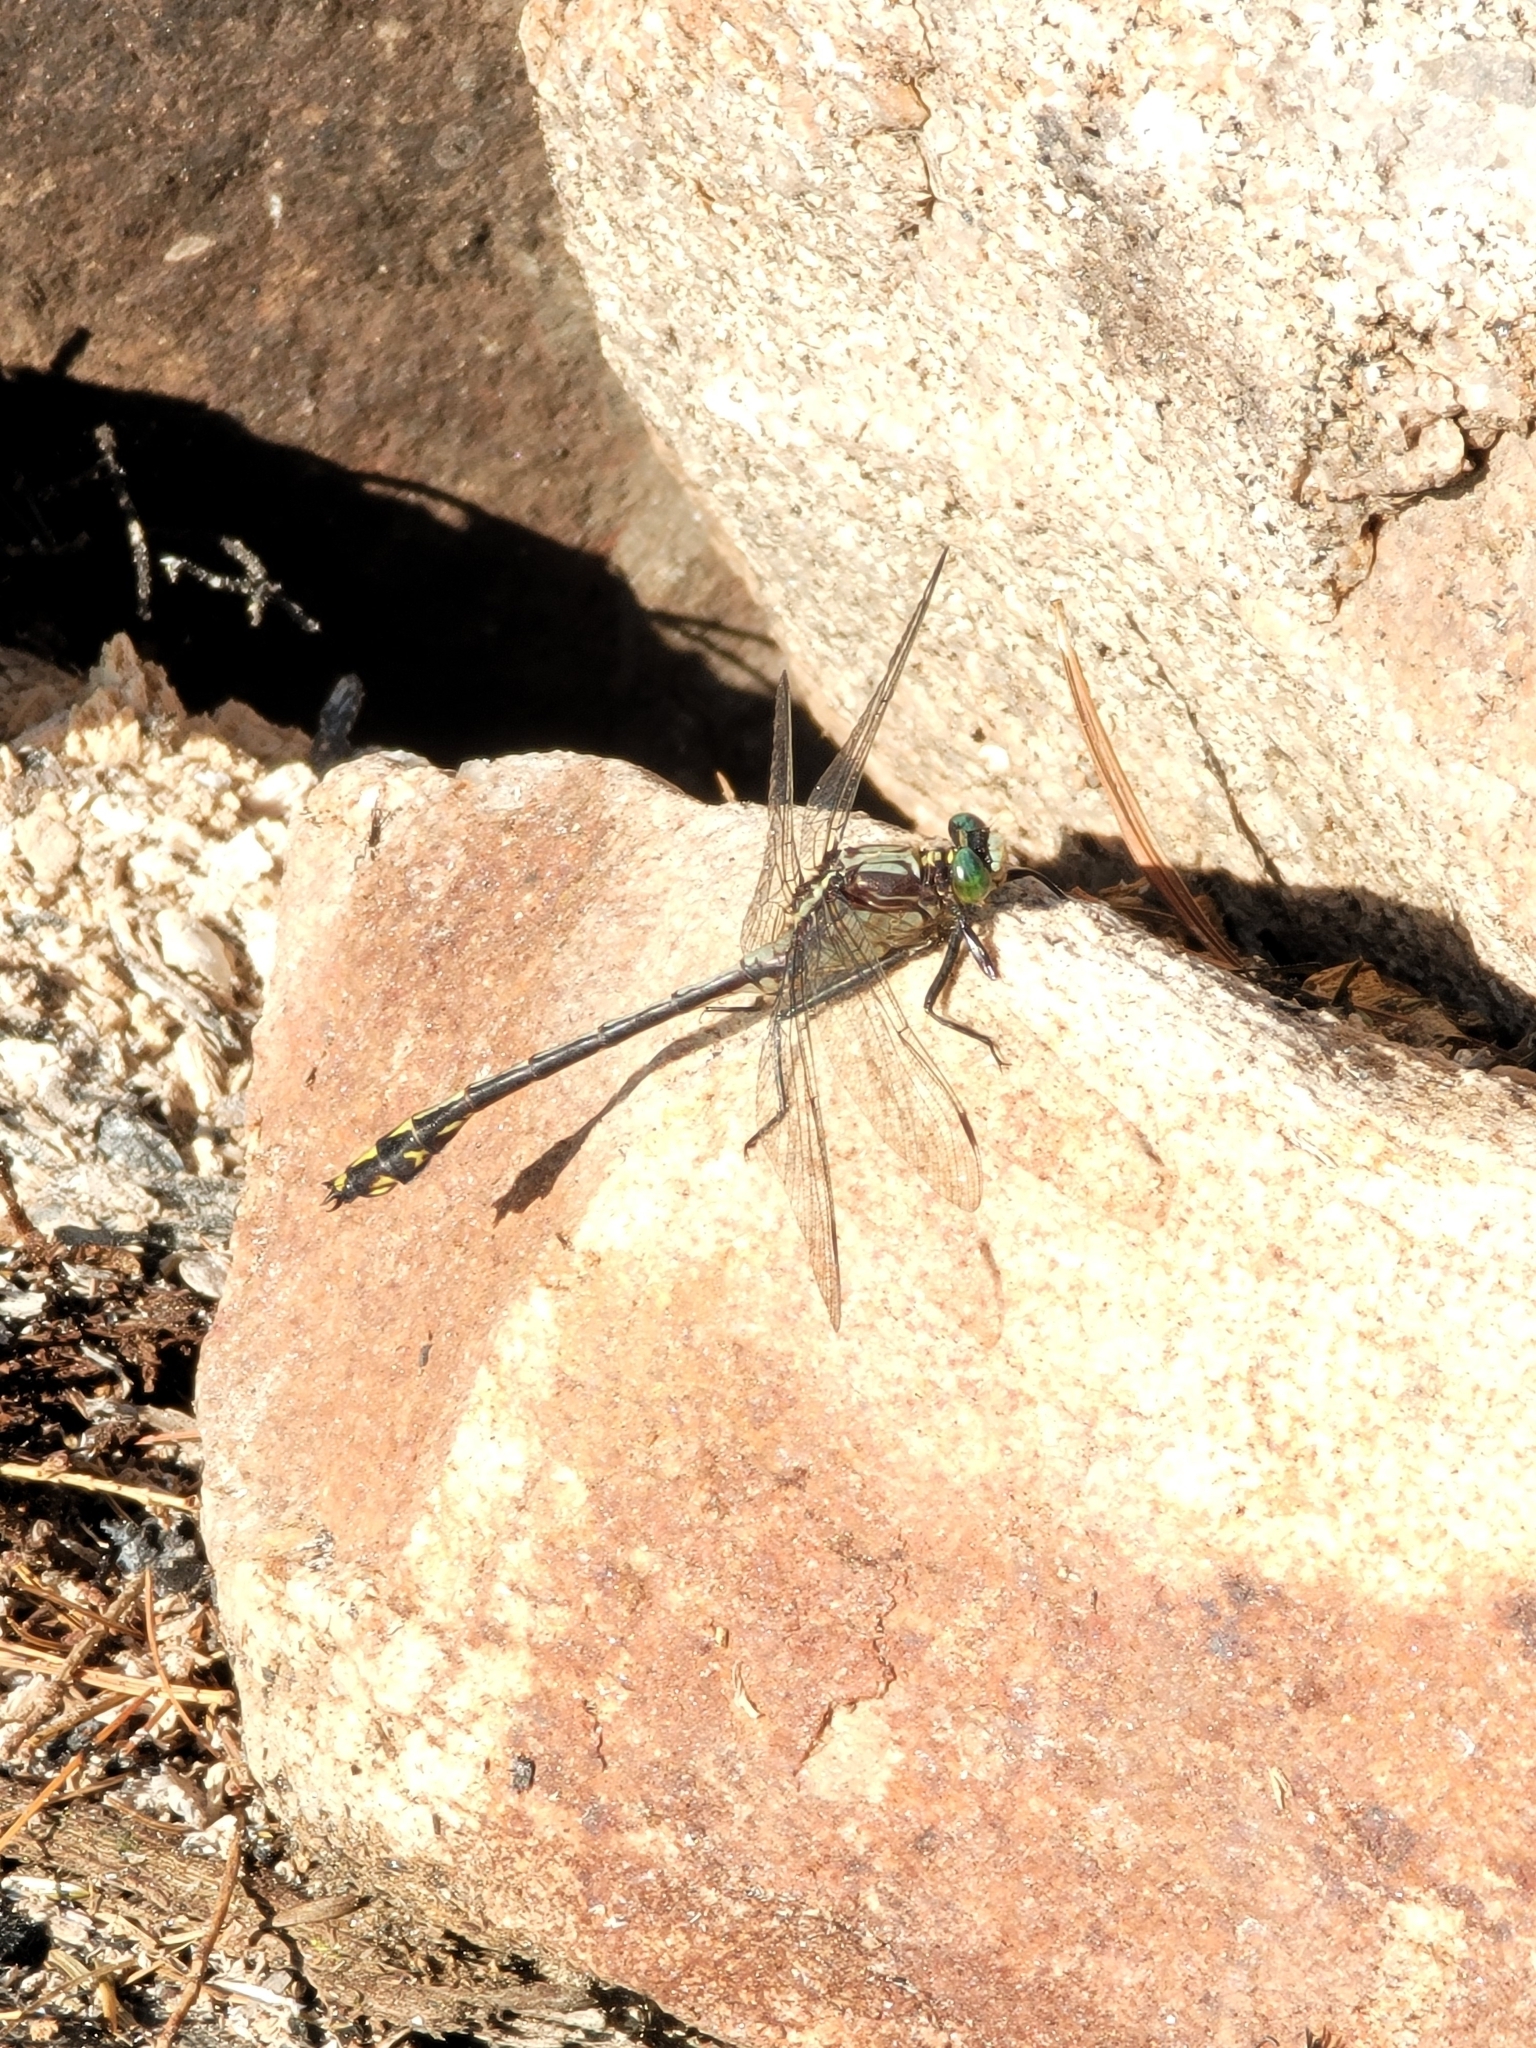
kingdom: Animalia
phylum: Arthropoda
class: Insecta
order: Odonata
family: Gomphidae
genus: Dromogomphus
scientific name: Dromogomphus spinosus
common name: Black-shouldered spinyleg
